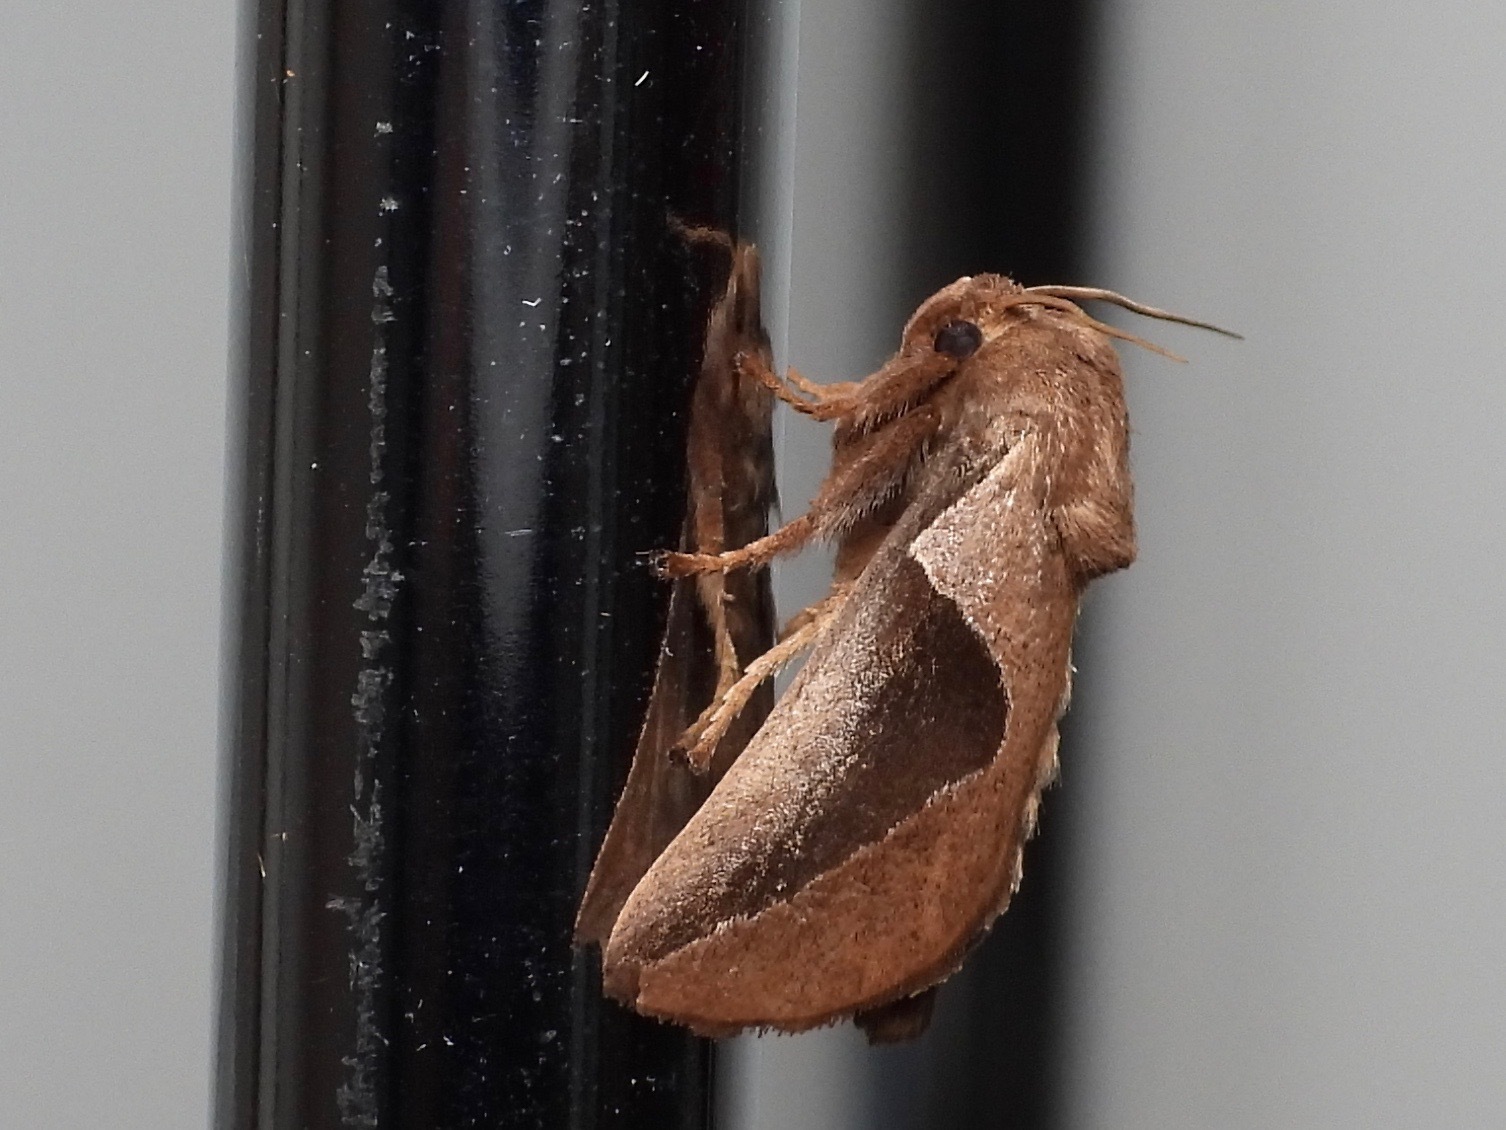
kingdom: Animalia
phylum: Arthropoda
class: Insecta
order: Lepidoptera
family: Limacodidae
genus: Prolimacodes
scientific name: Prolimacodes triangulifera
